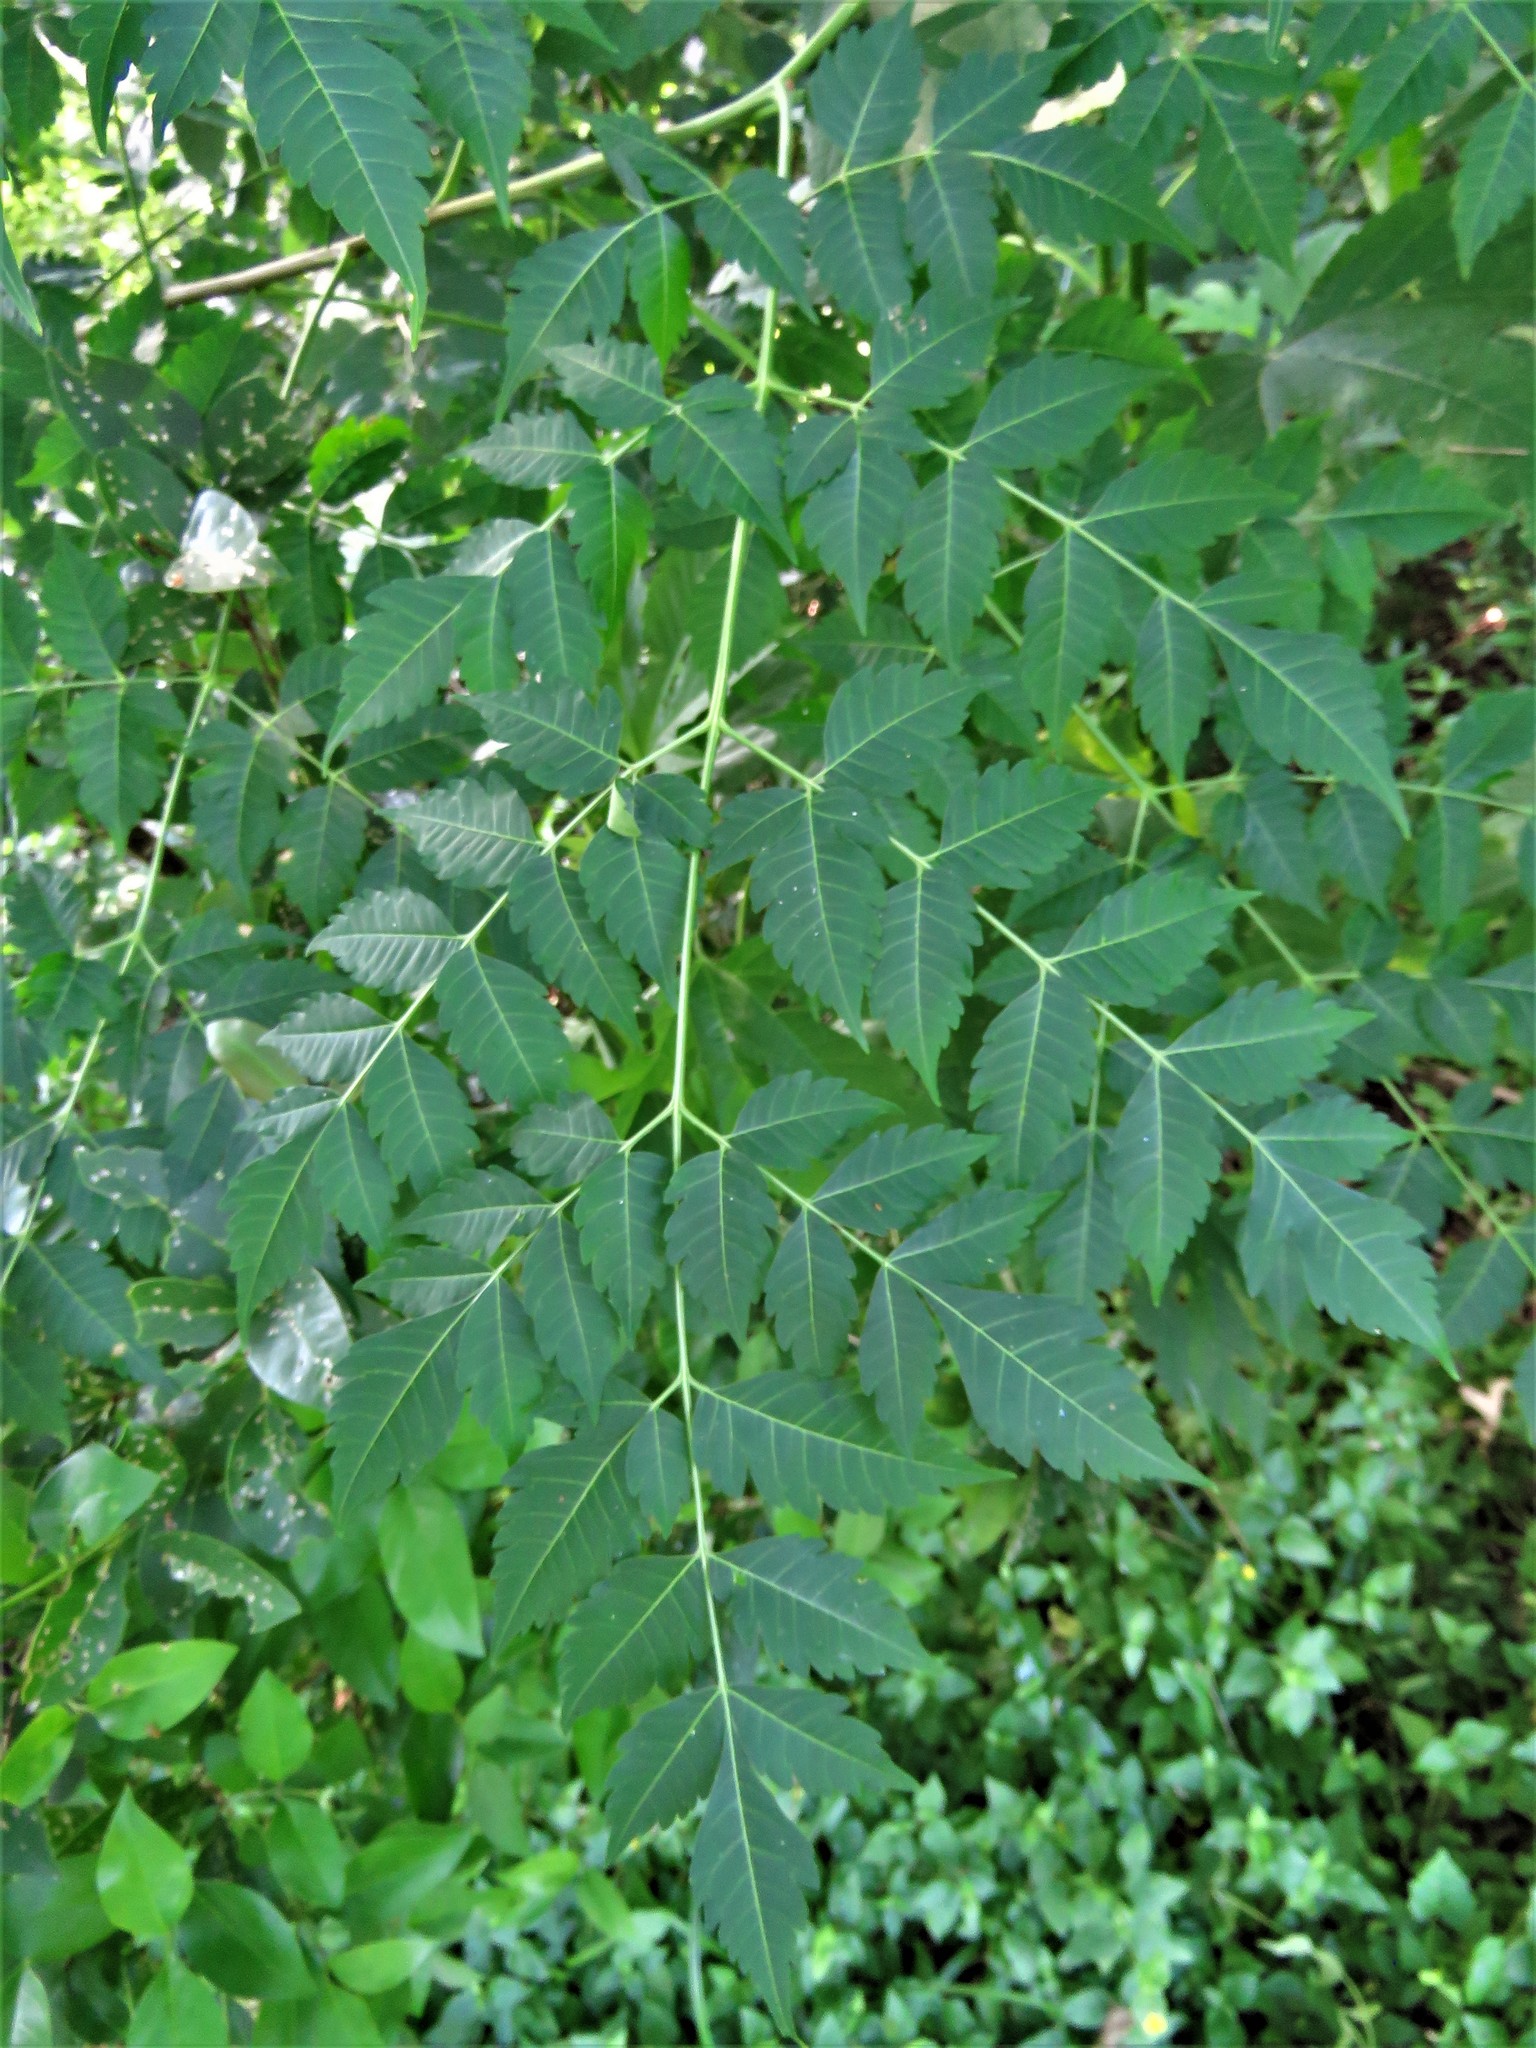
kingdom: Plantae
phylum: Tracheophyta
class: Magnoliopsida
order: Sapindales
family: Meliaceae
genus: Melia
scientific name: Melia azedarach
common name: Chinaberrytree
